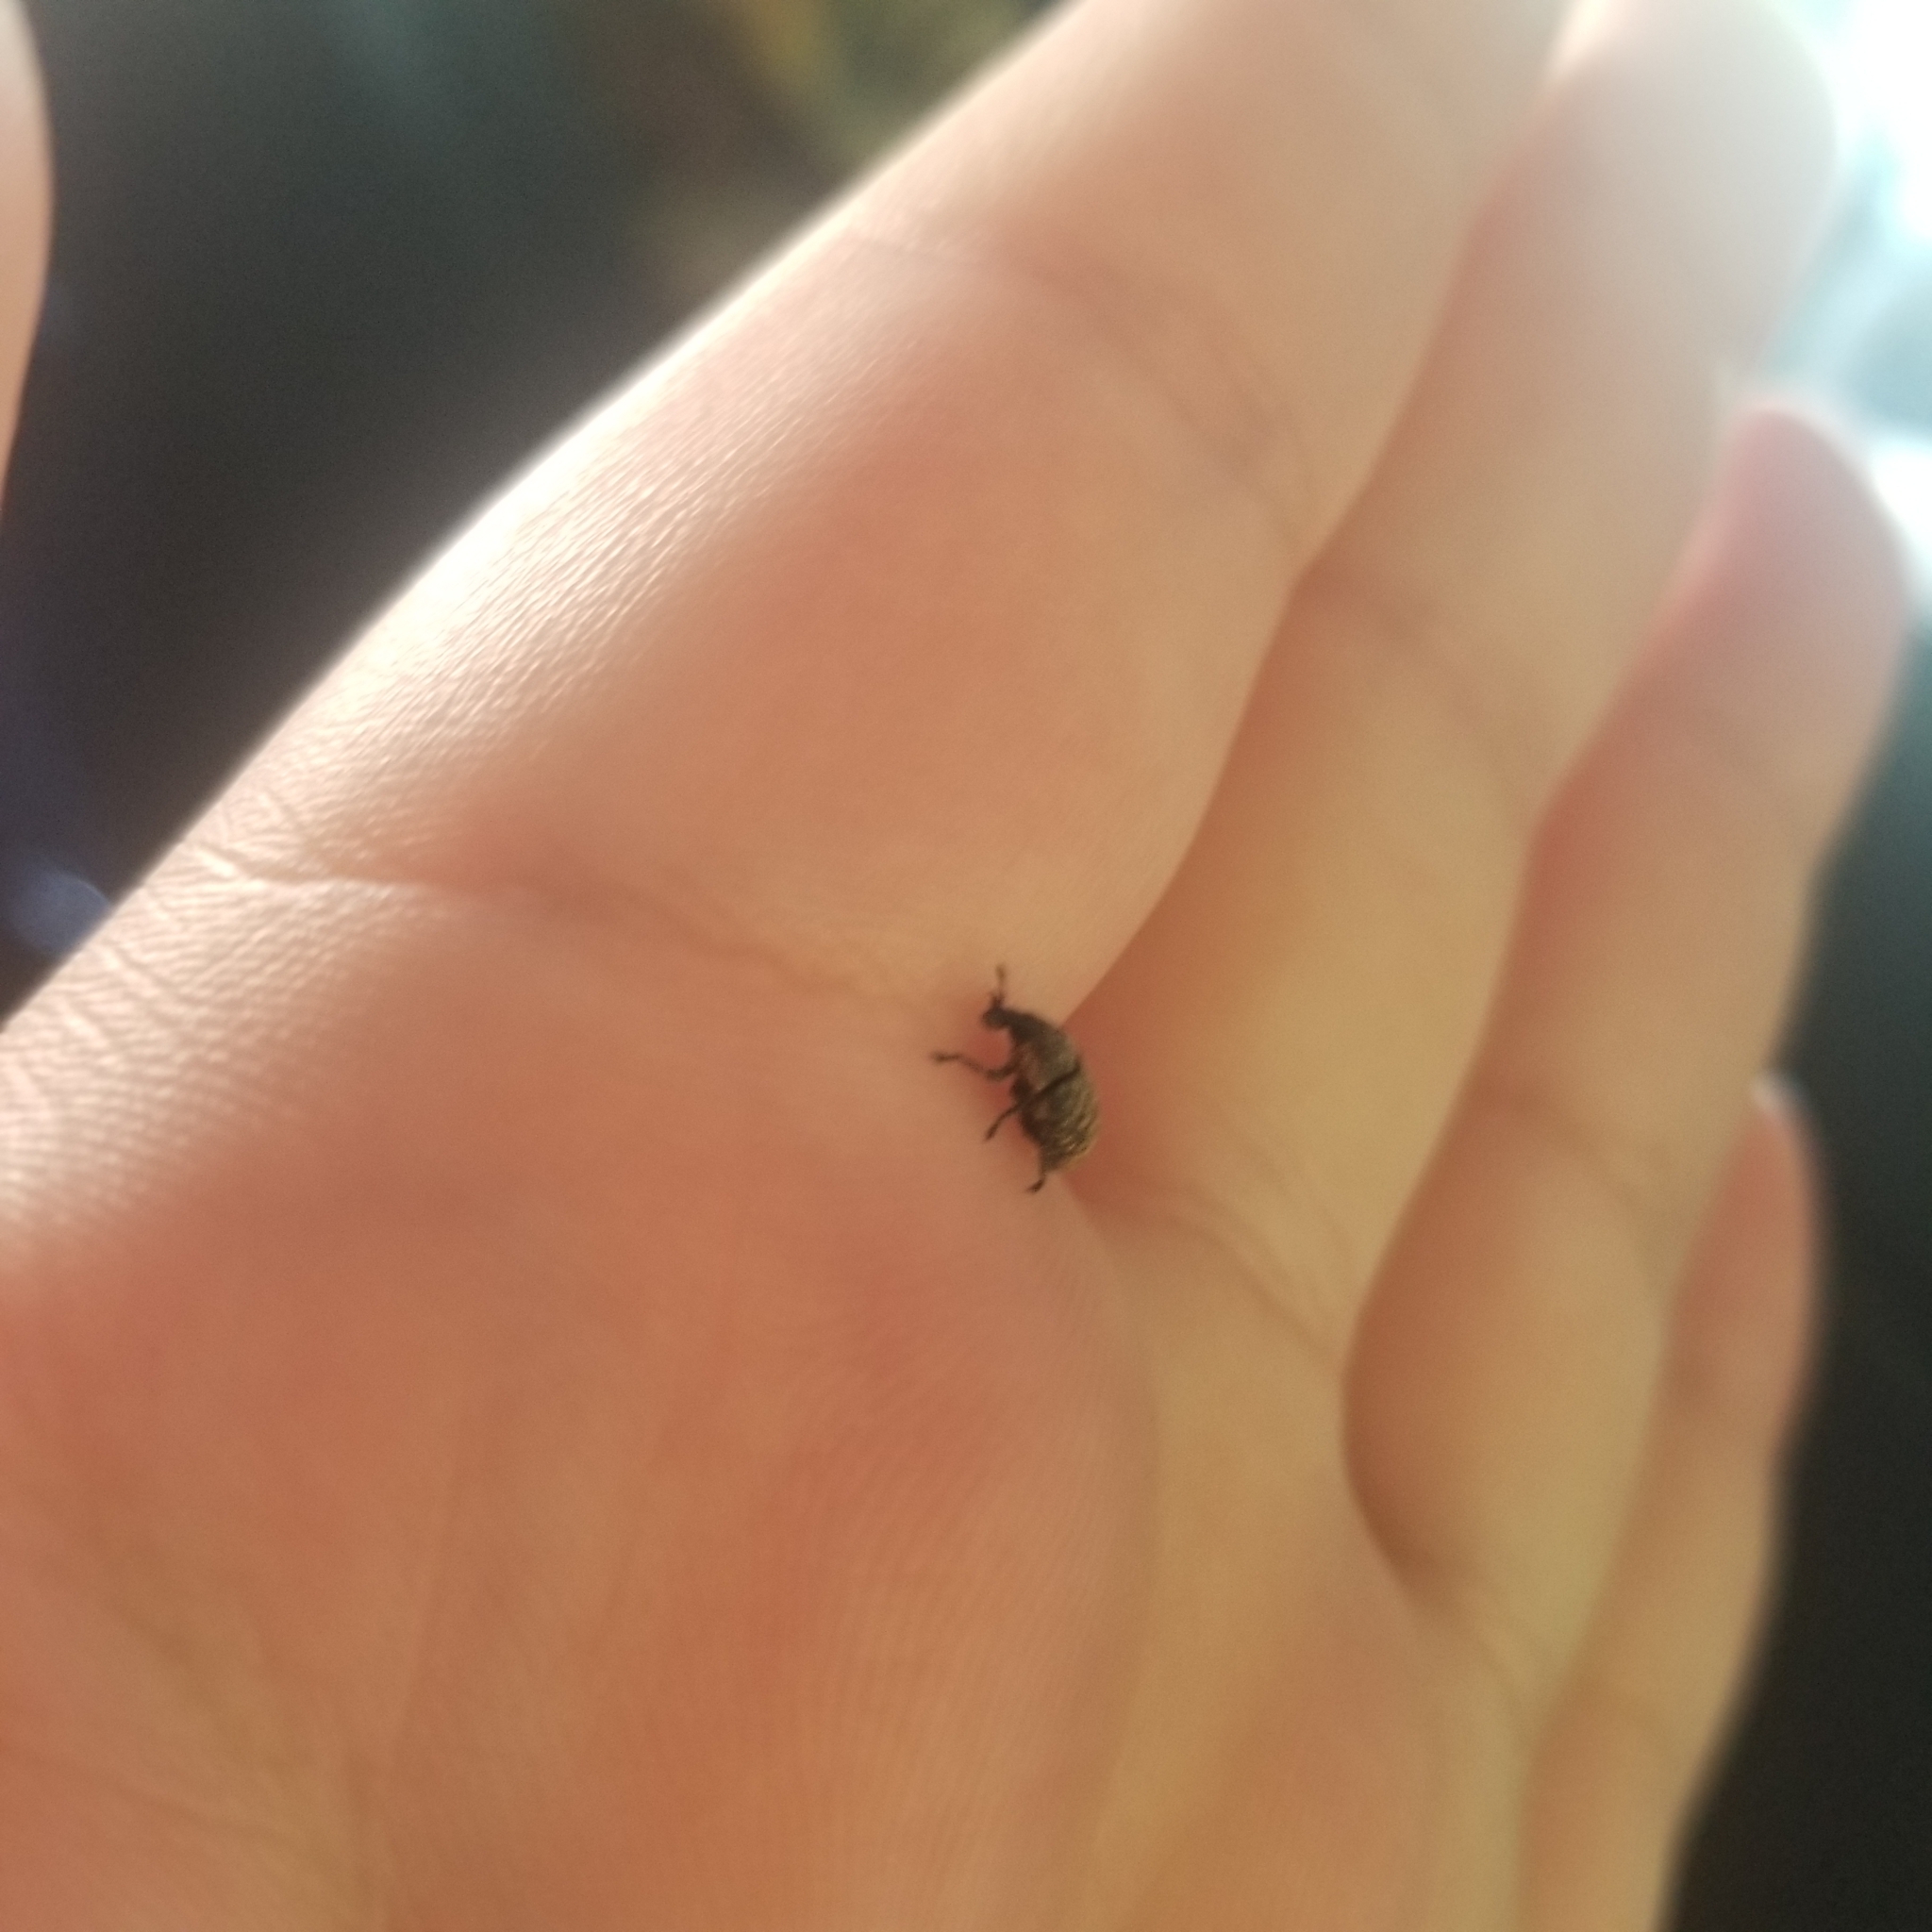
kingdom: Animalia
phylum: Arthropoda
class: Insecta
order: Coleoptera
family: Curculionidae
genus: Larinus
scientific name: Larinus minutus
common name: Weevil
